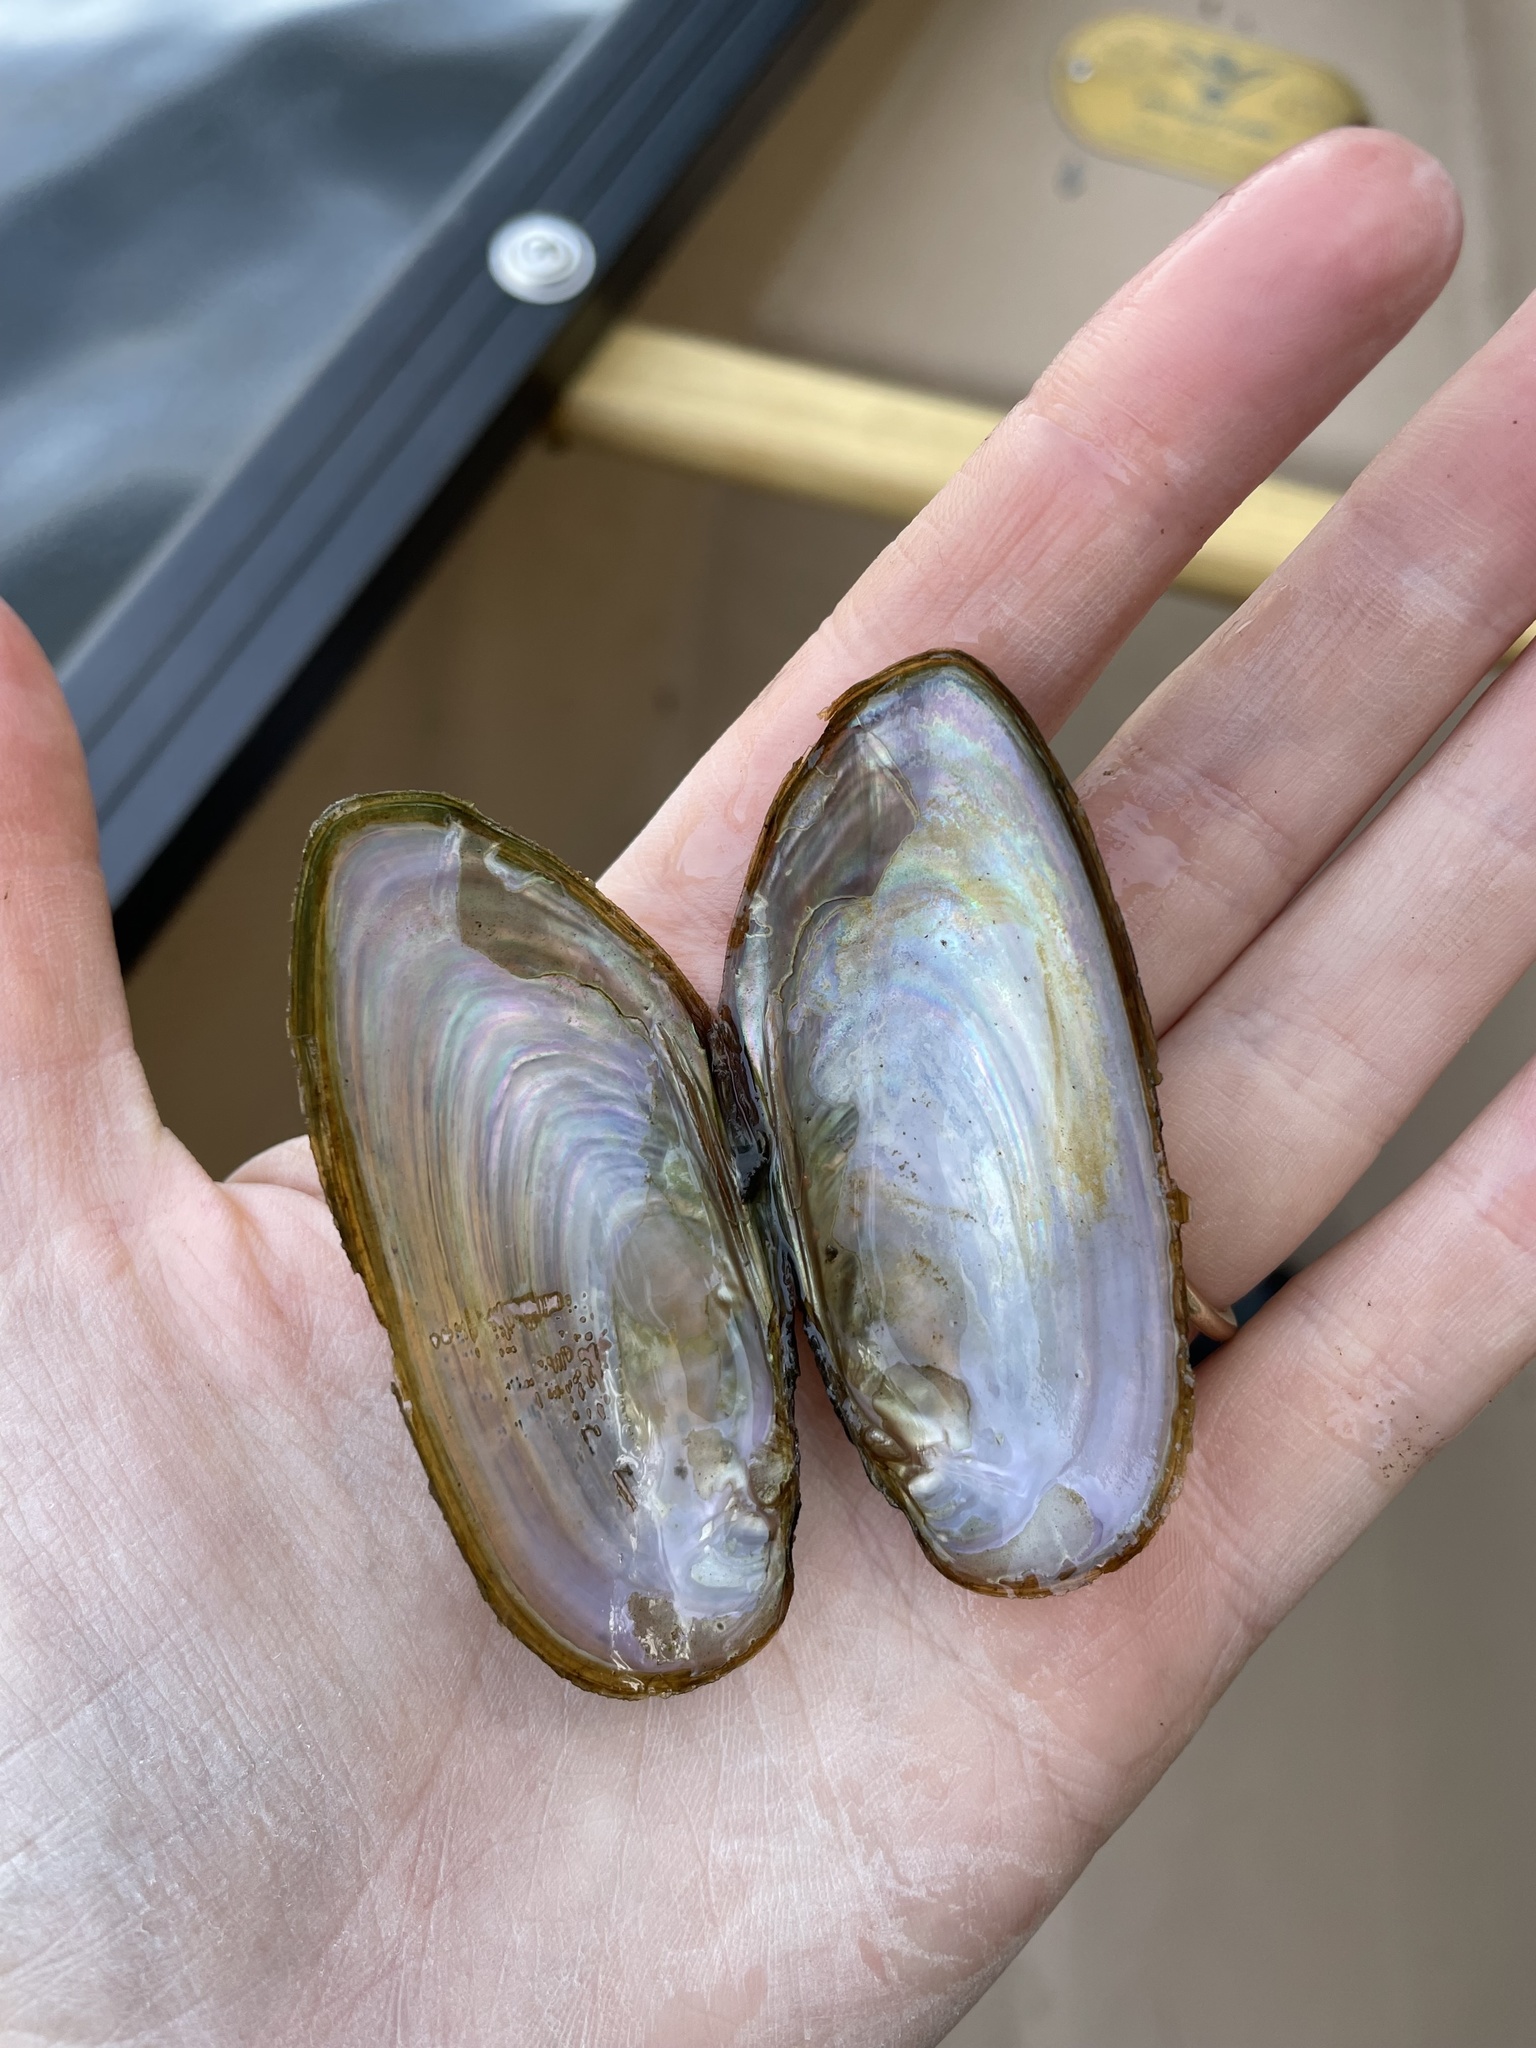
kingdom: Animalia
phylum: Mollusca
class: Bivalvia
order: Unionida
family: Unionidae
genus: Elliptio
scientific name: Elliptio complanata
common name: Eastern elliptio
